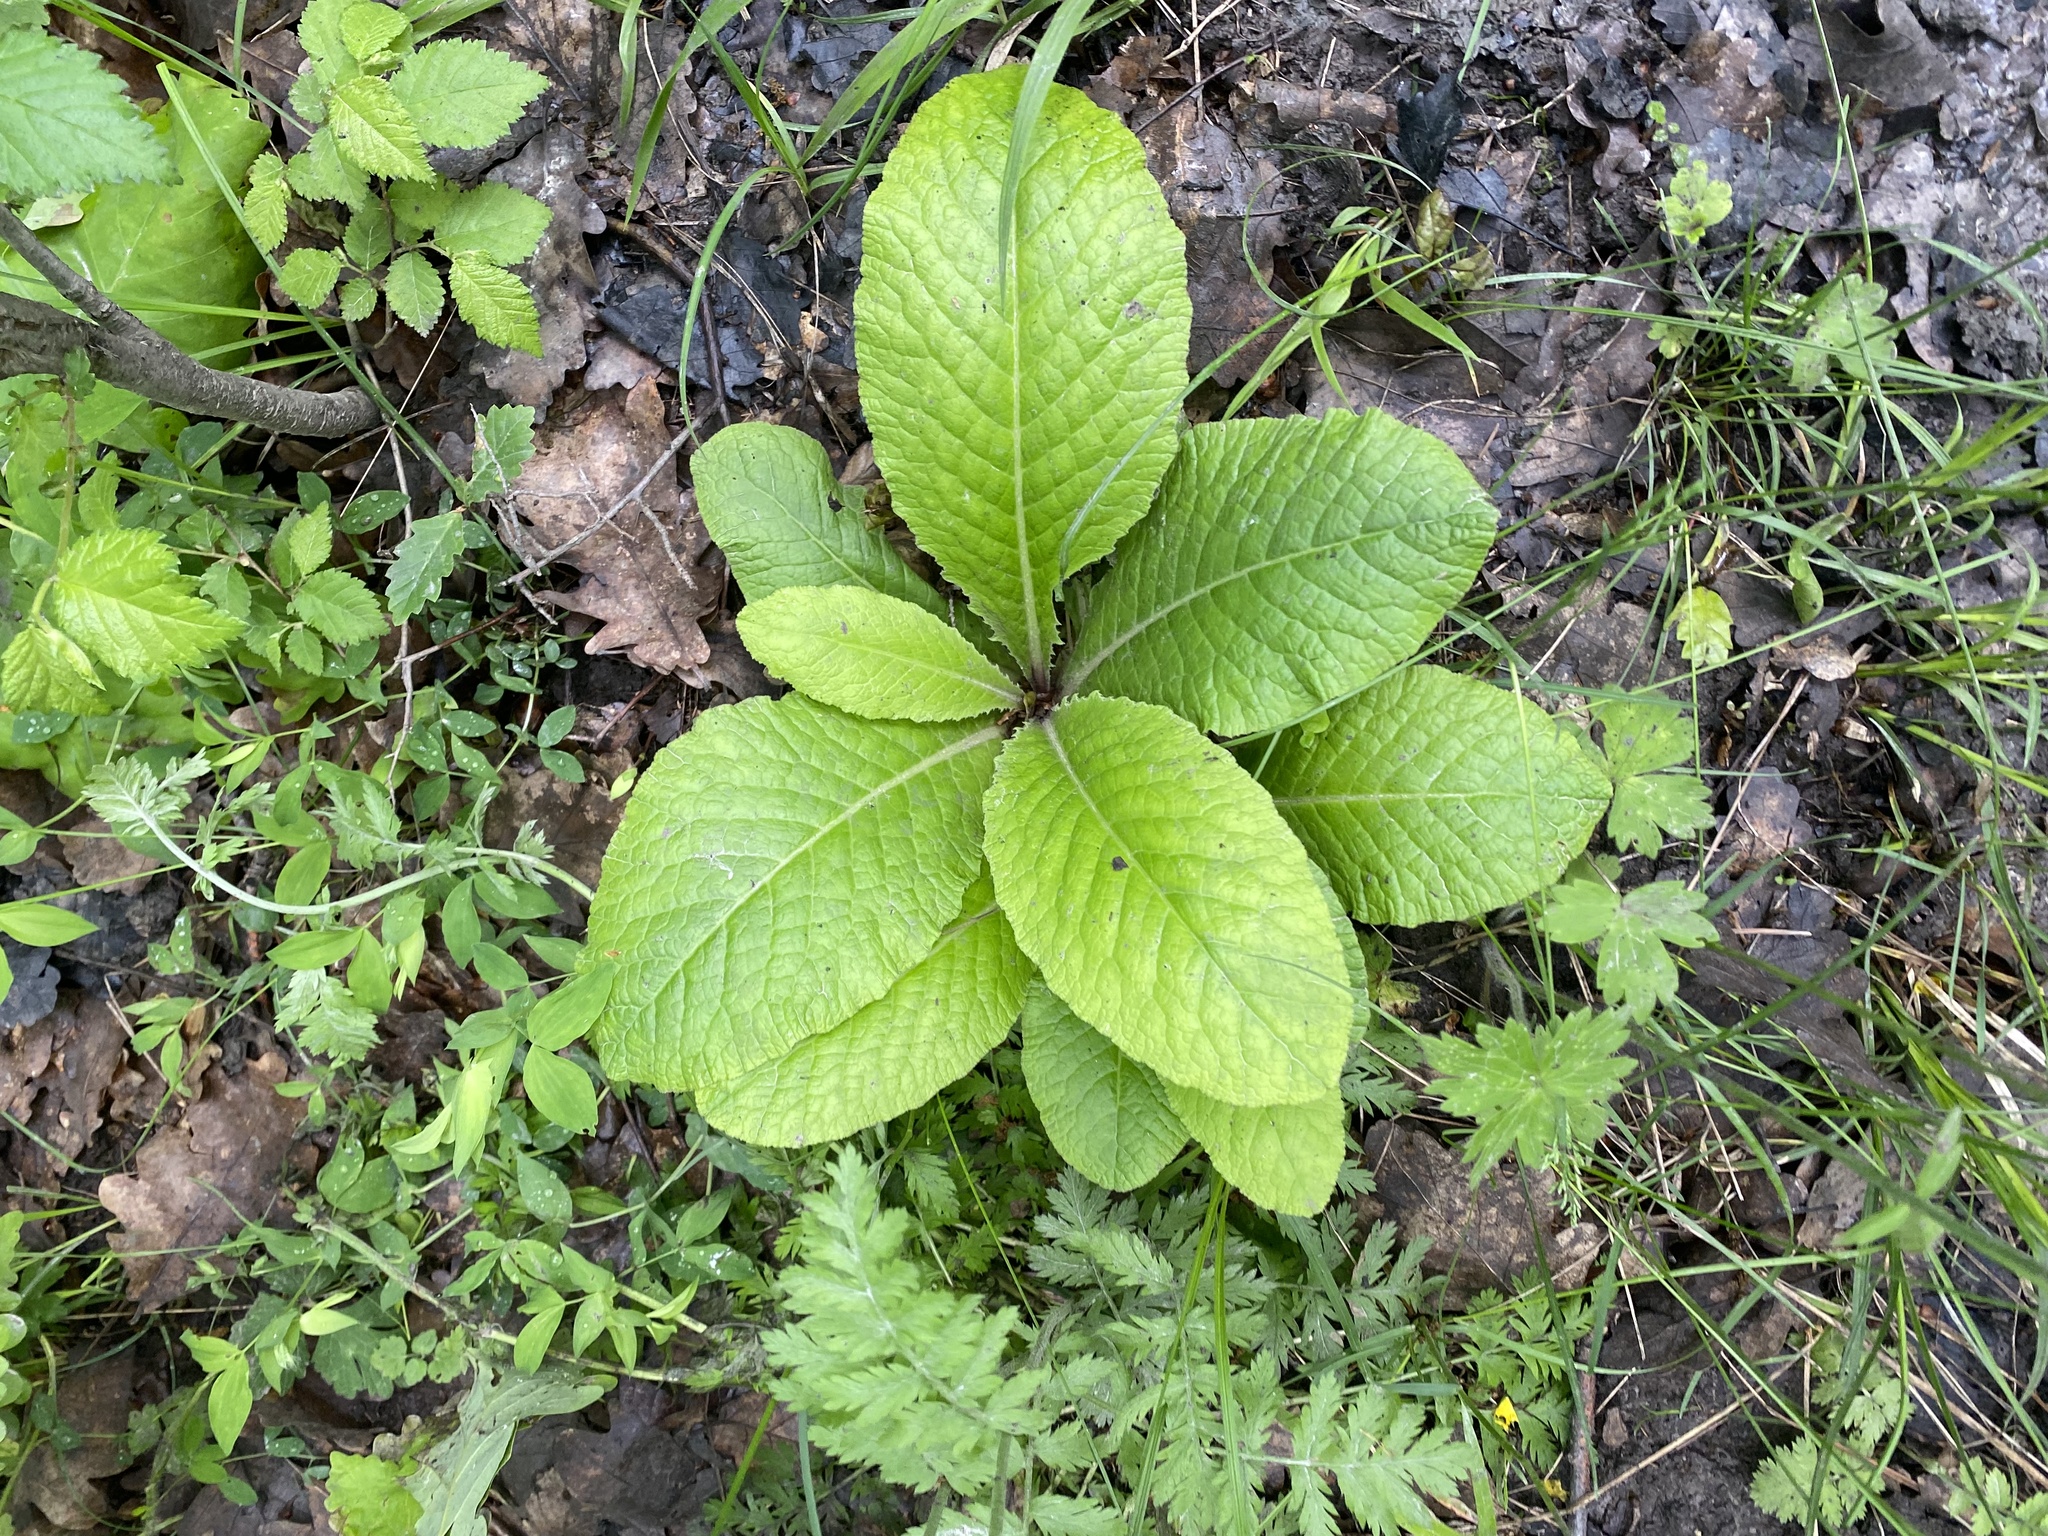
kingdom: Plantae
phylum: Tracheophyta
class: Magnoliopsida
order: Ericales
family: Primulaceae
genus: Primula
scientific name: Primula vulgaris
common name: Primrose
